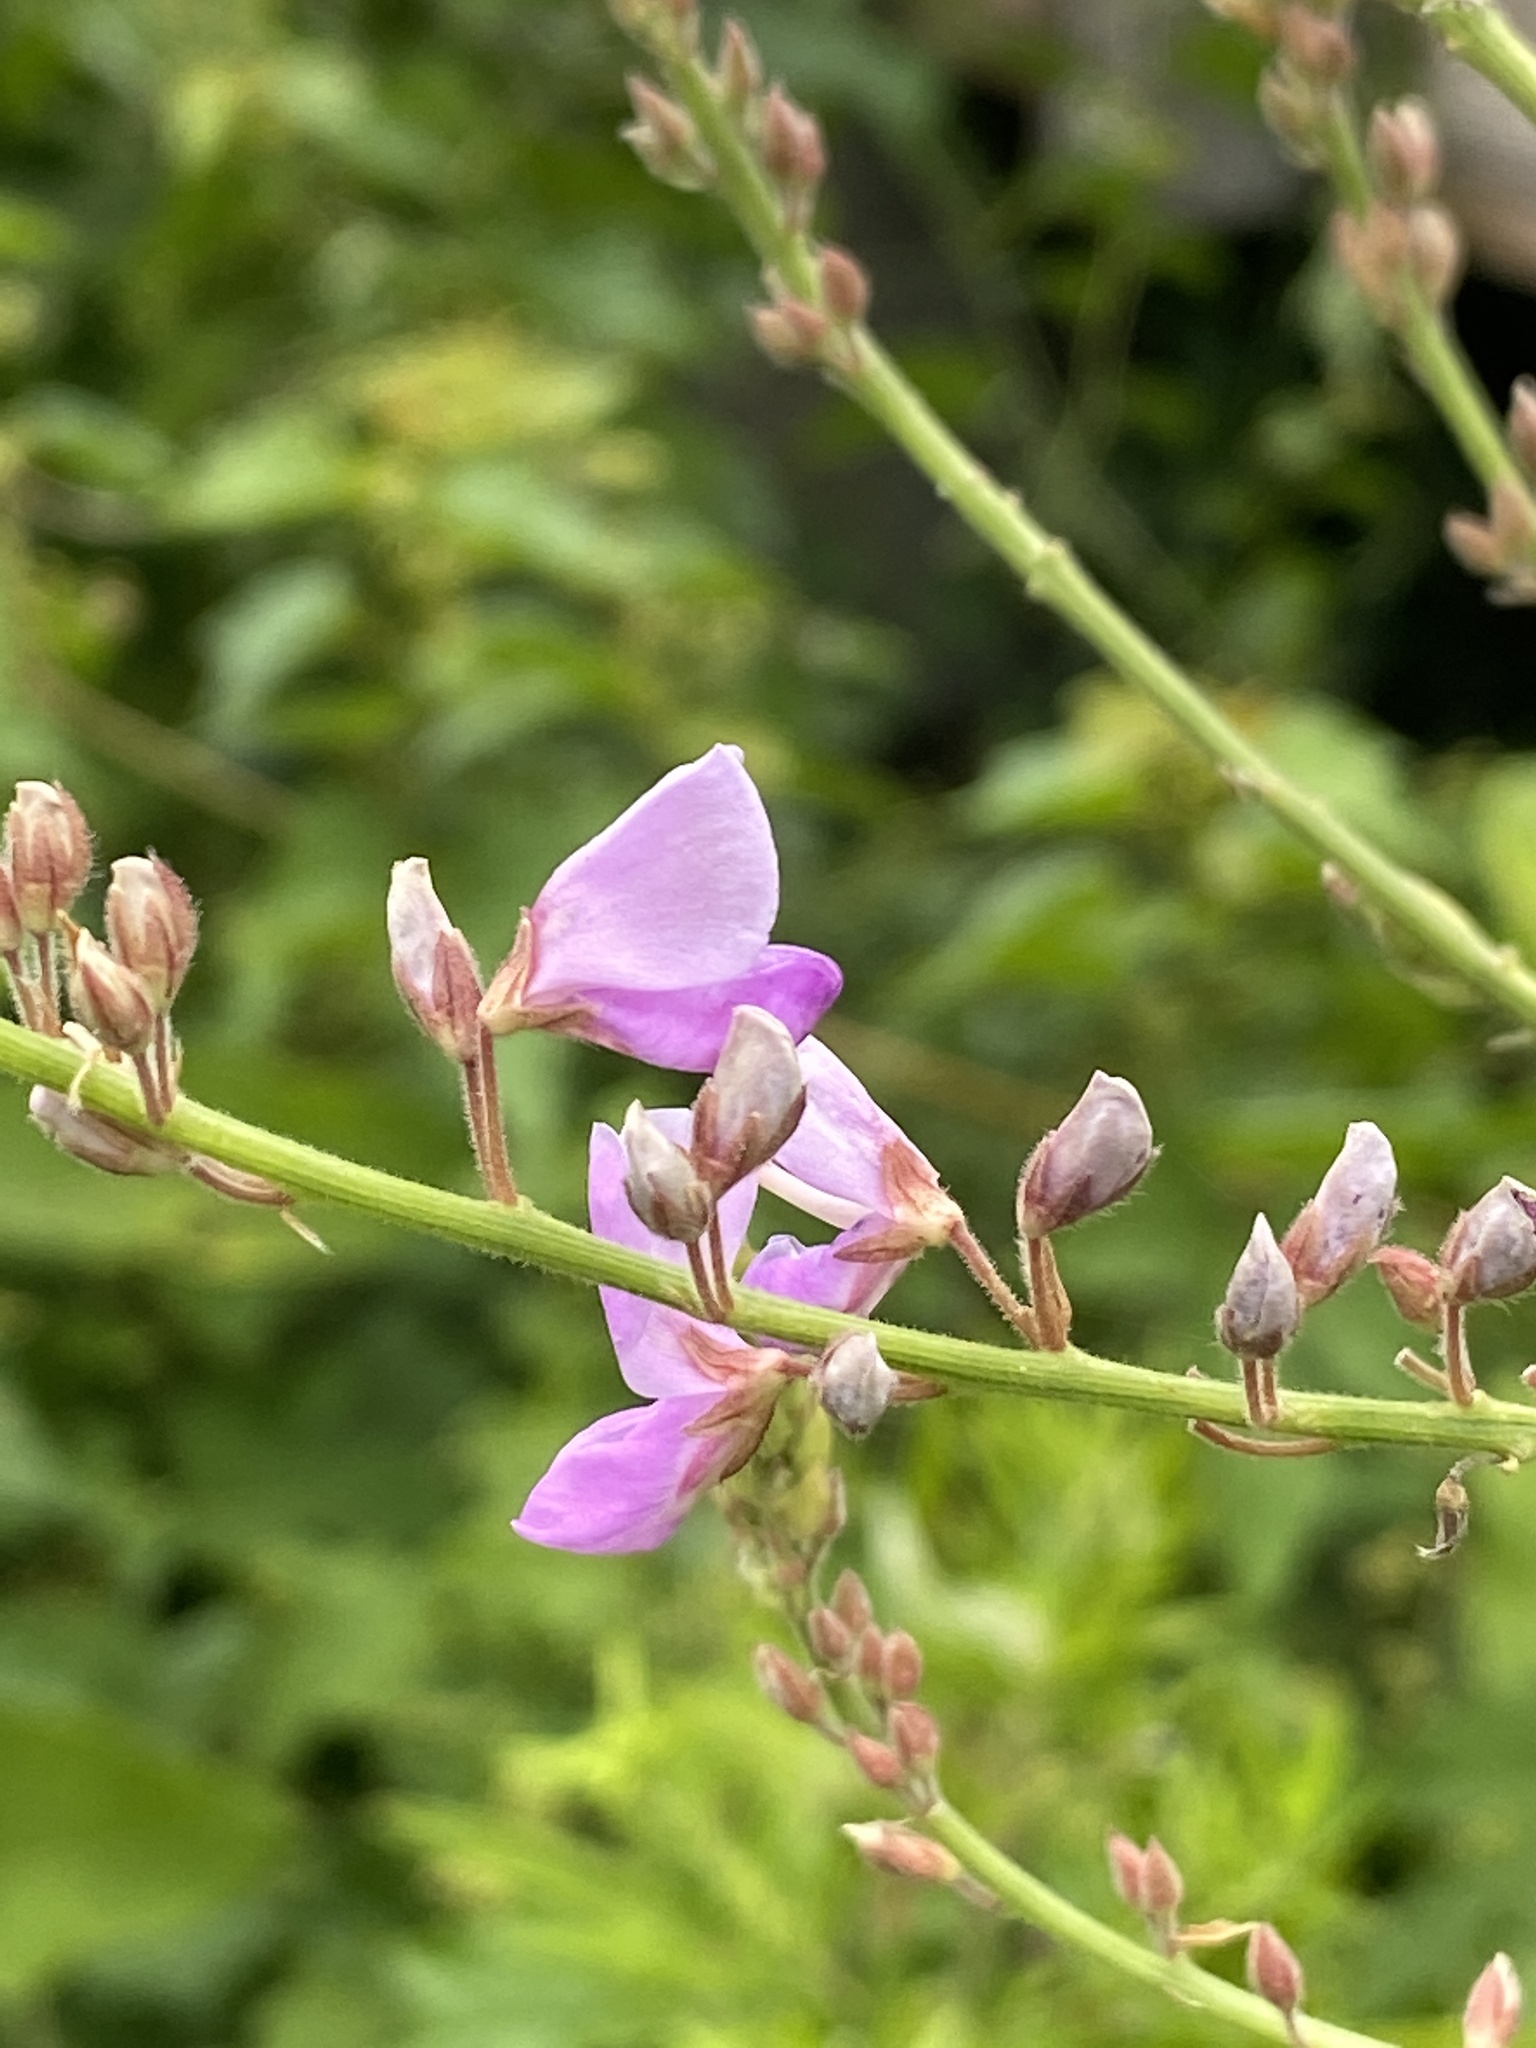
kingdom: Plantae
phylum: Tracheophyta
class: Magnoliopsida
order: Fabales
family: Fabaceae
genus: Desmodium
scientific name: Desmodium canadense
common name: Canada tick-trefoil
